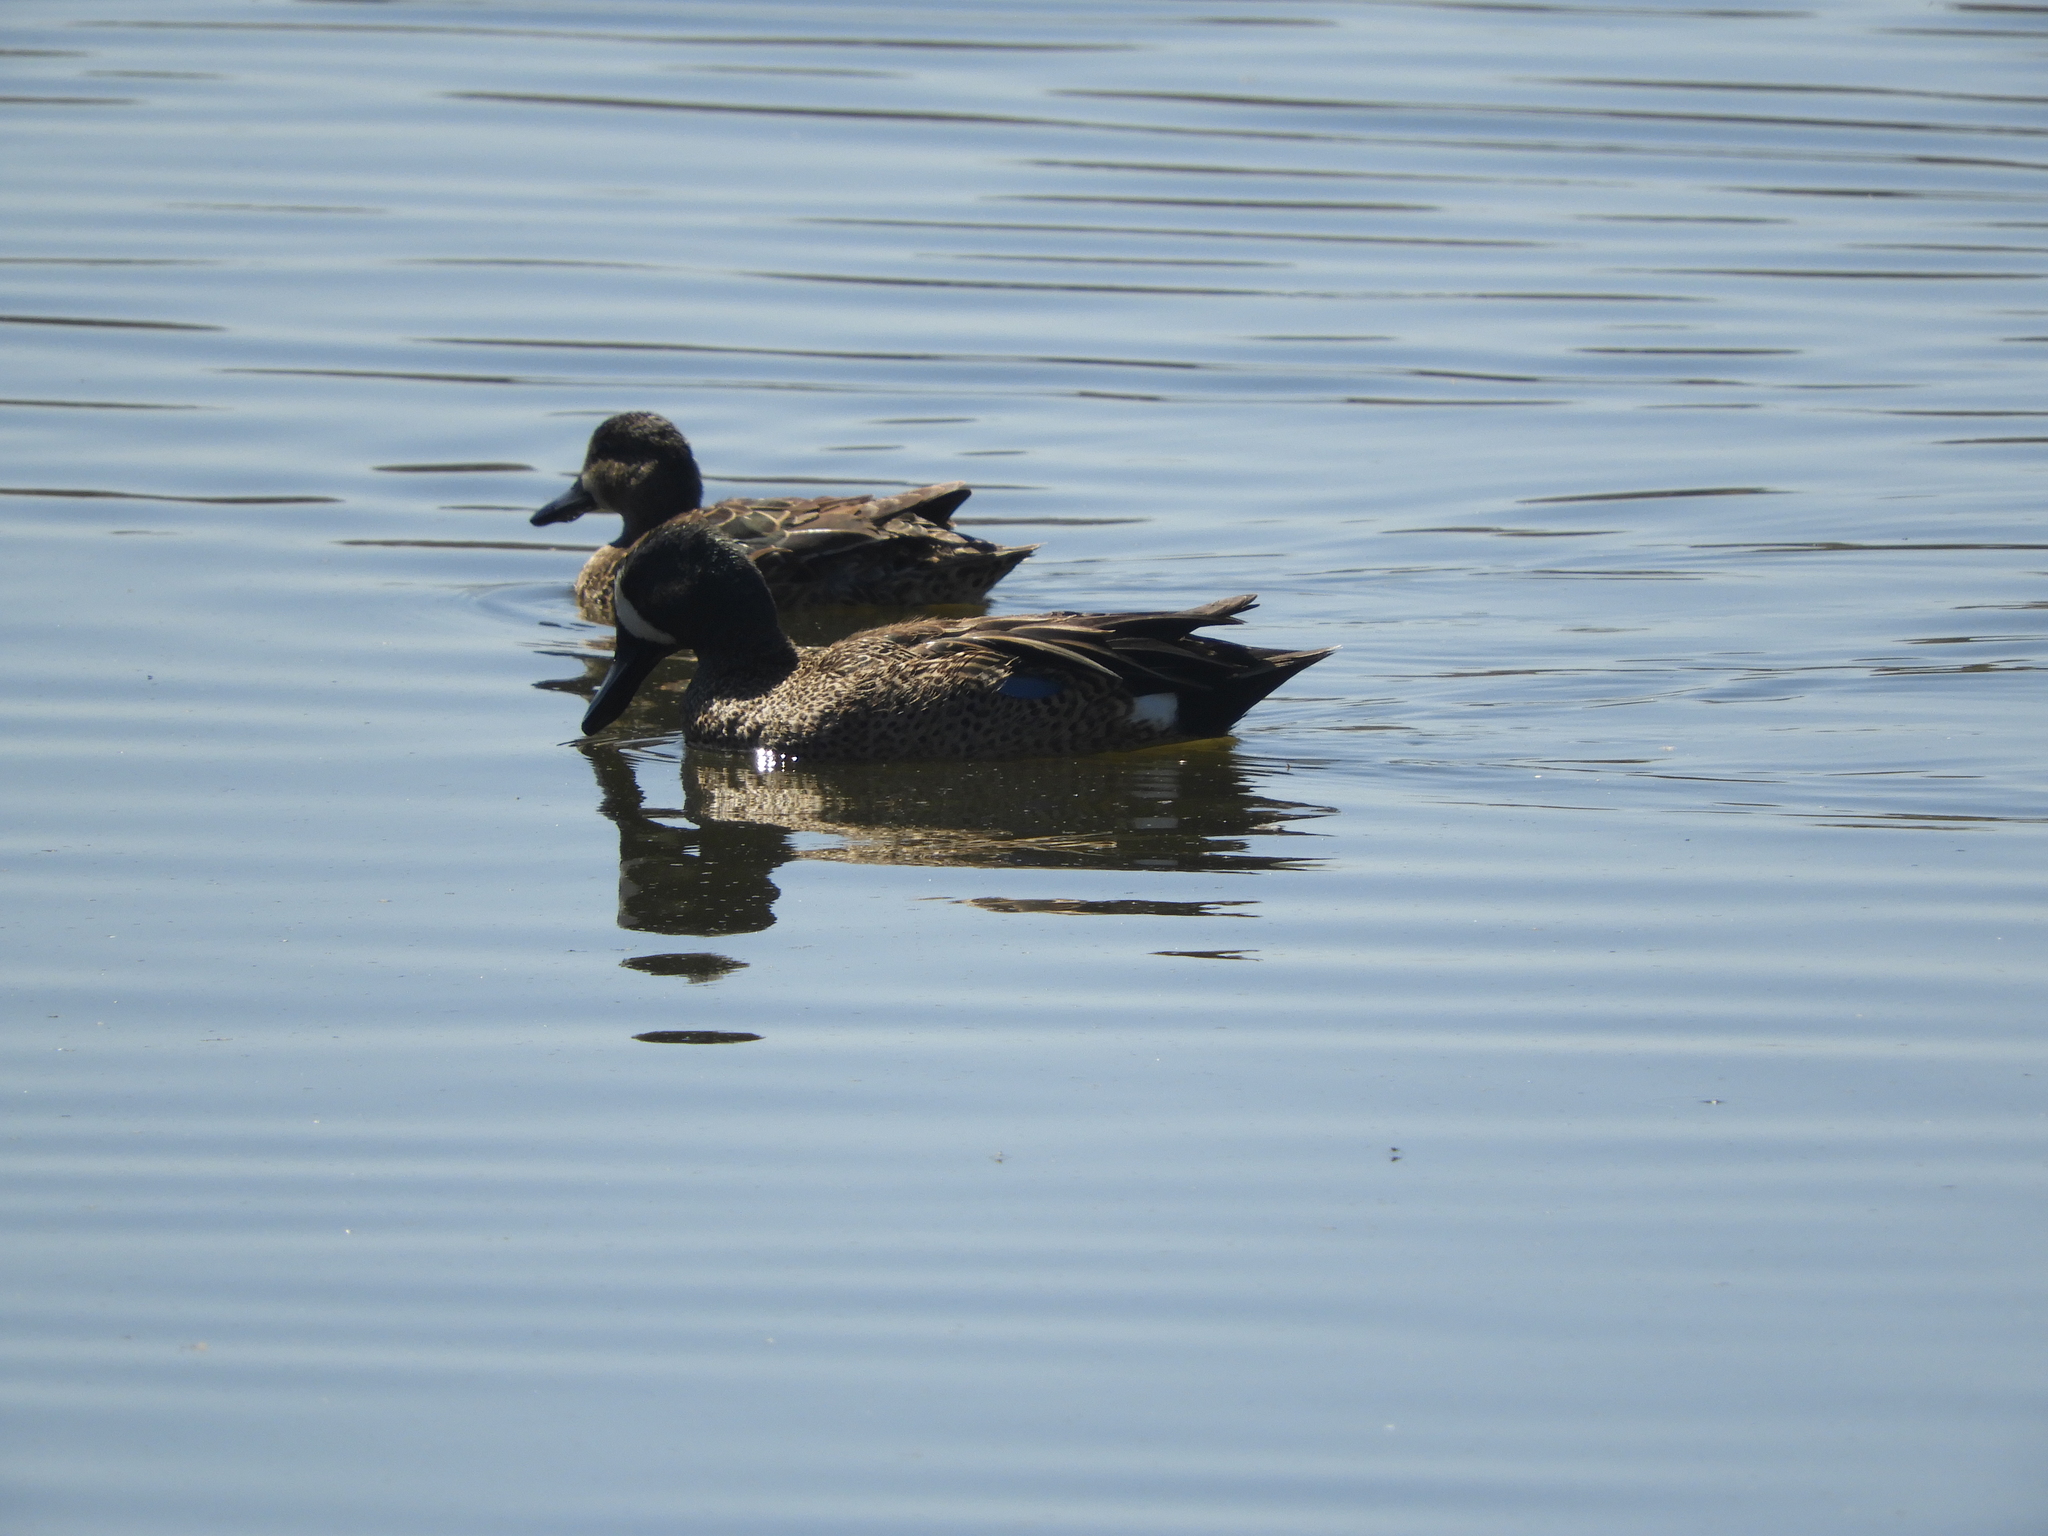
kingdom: Animalia
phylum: Chordata
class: Aves
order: Anseriformes
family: Anatidae
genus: Spatula
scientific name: Spatula discors
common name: Blue-winged teal
